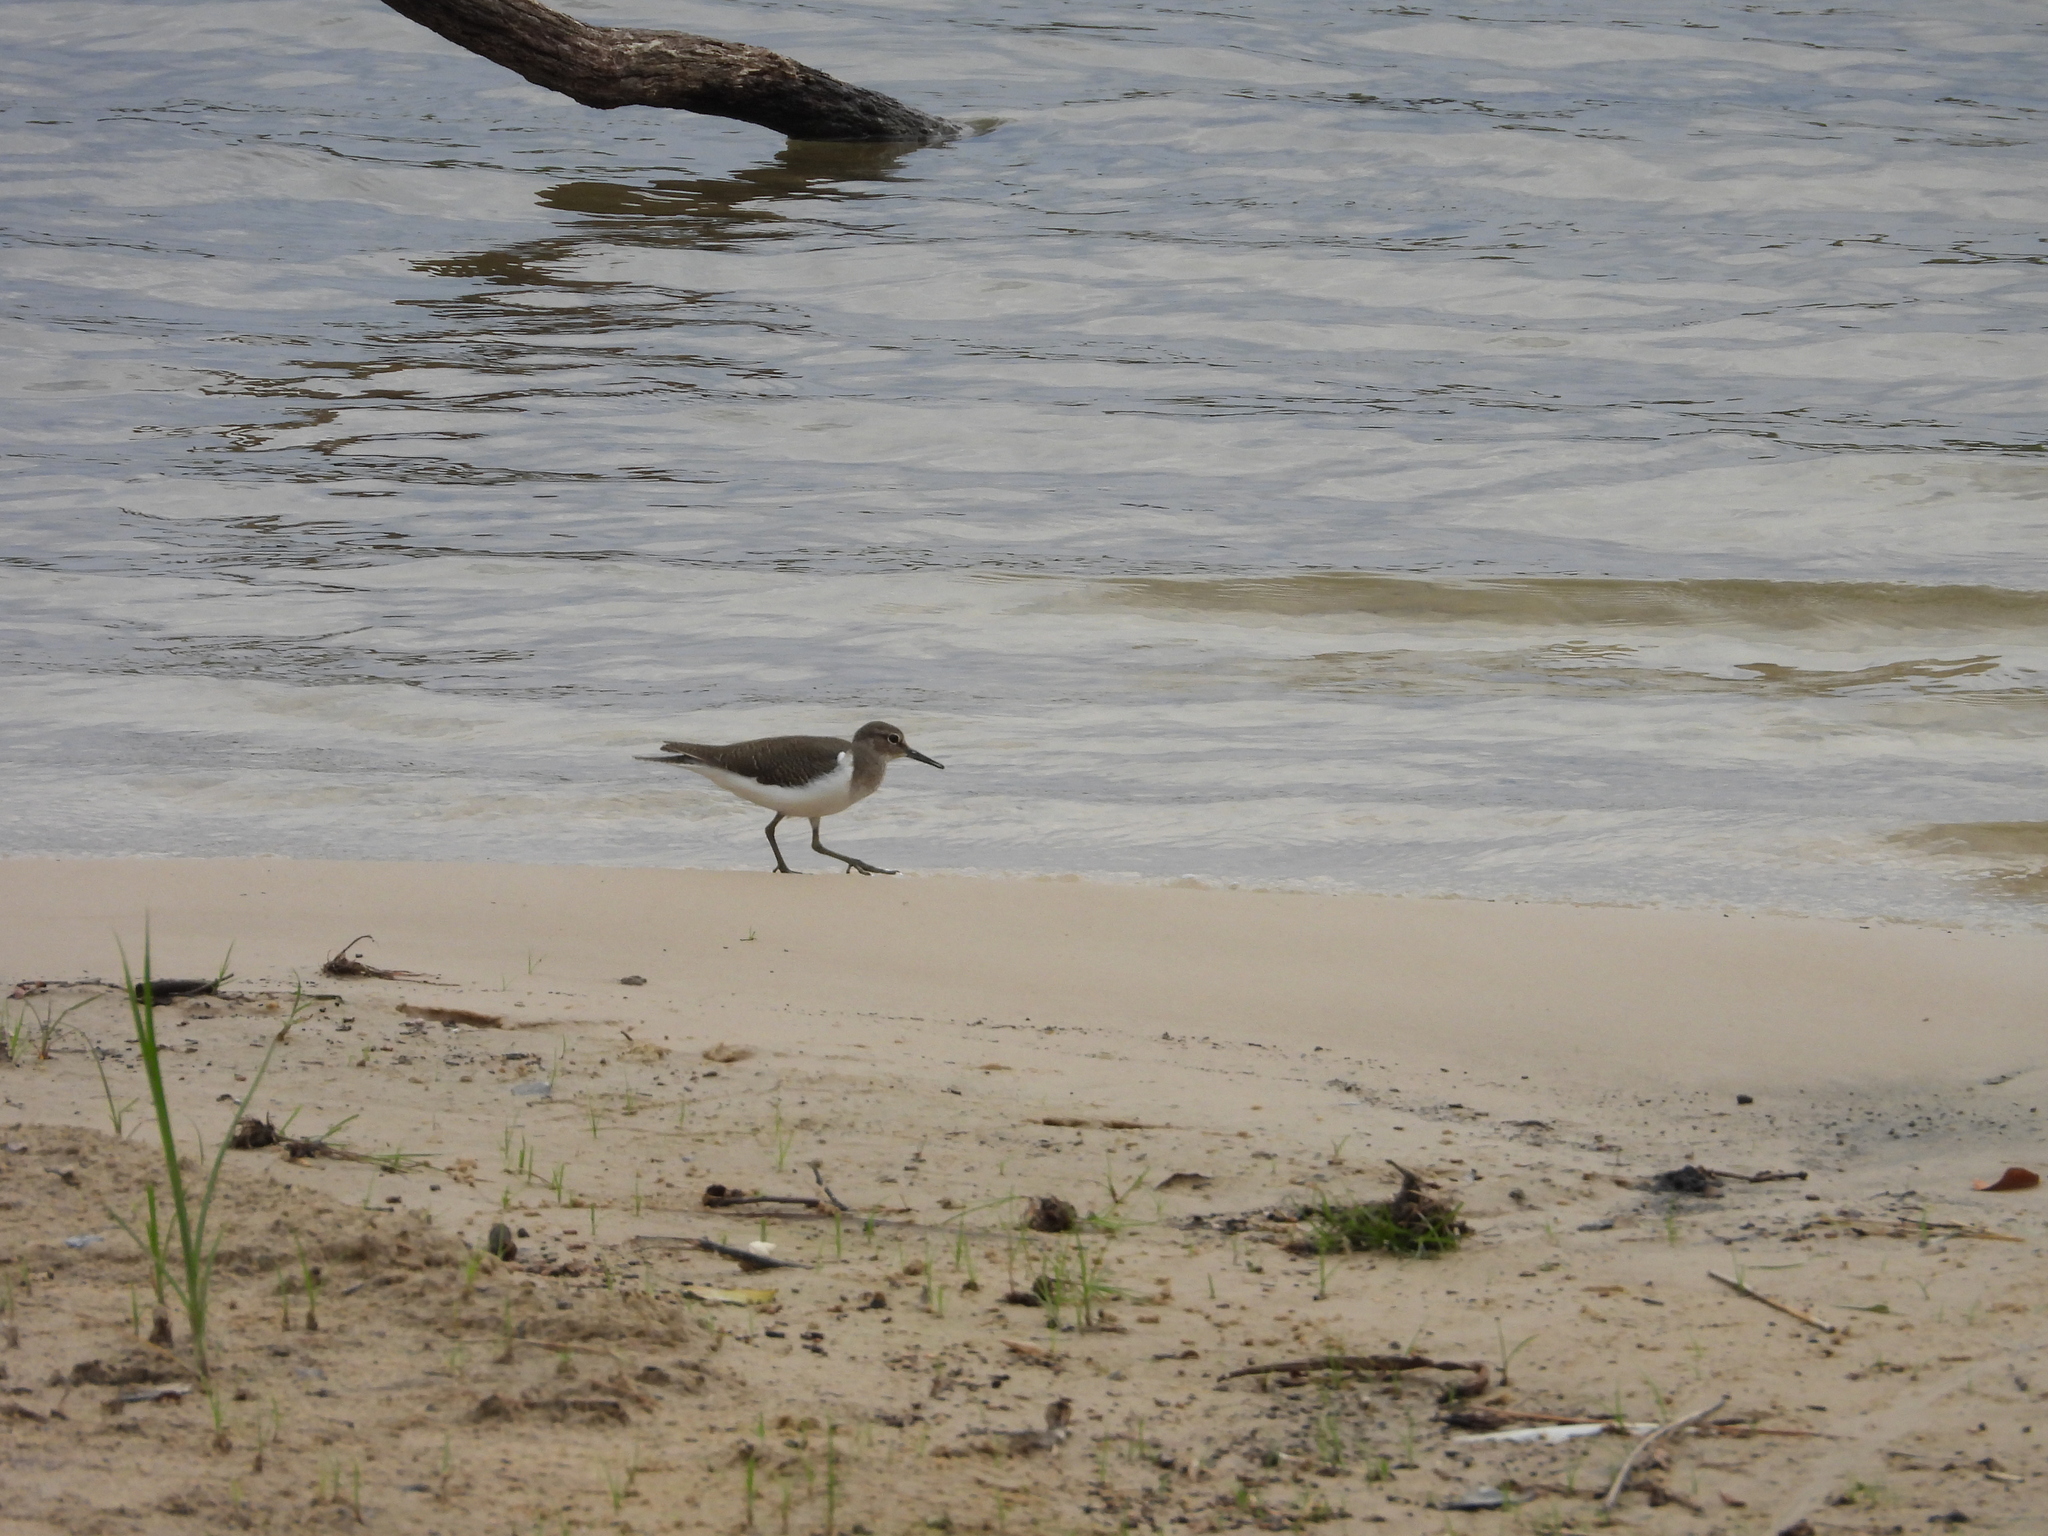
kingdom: Animalia
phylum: Chordata
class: Aves
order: Charadriiformes
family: Scolopacidae
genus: Actitis
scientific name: Actitis hypoleucos
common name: Common sandpiper
